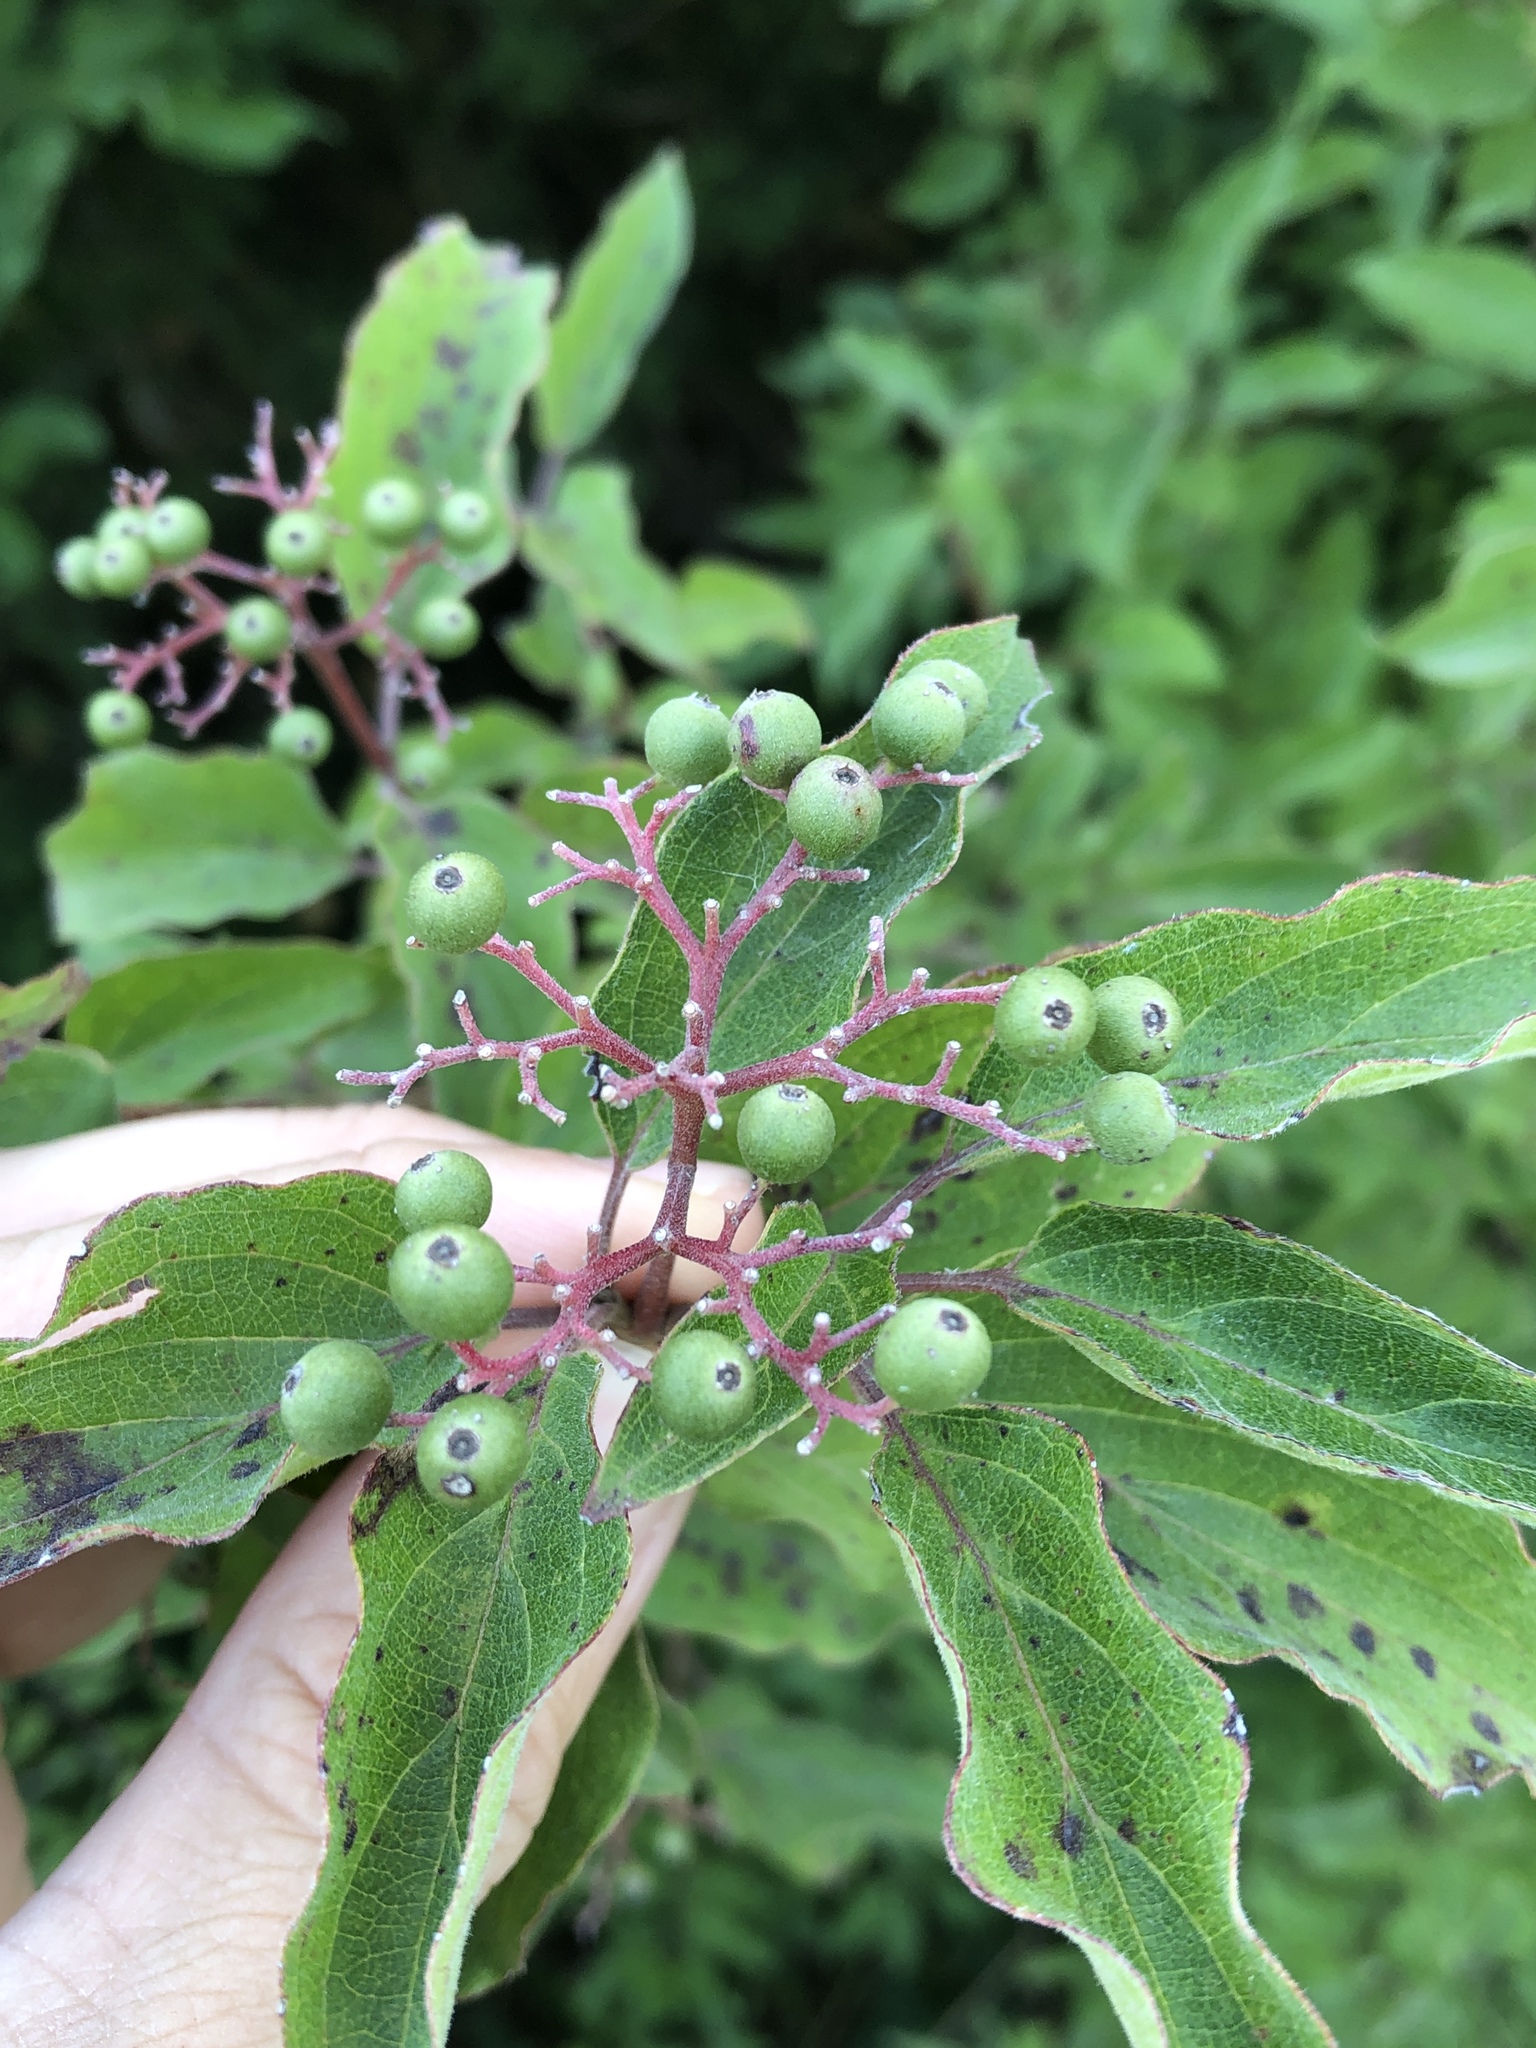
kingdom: Plantae
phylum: Tracheophyta
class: Magnoliopsida
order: Cornales
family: Cornaceae
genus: Cornus
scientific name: Cornus drummondii
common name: Rough-leaf dogwood
